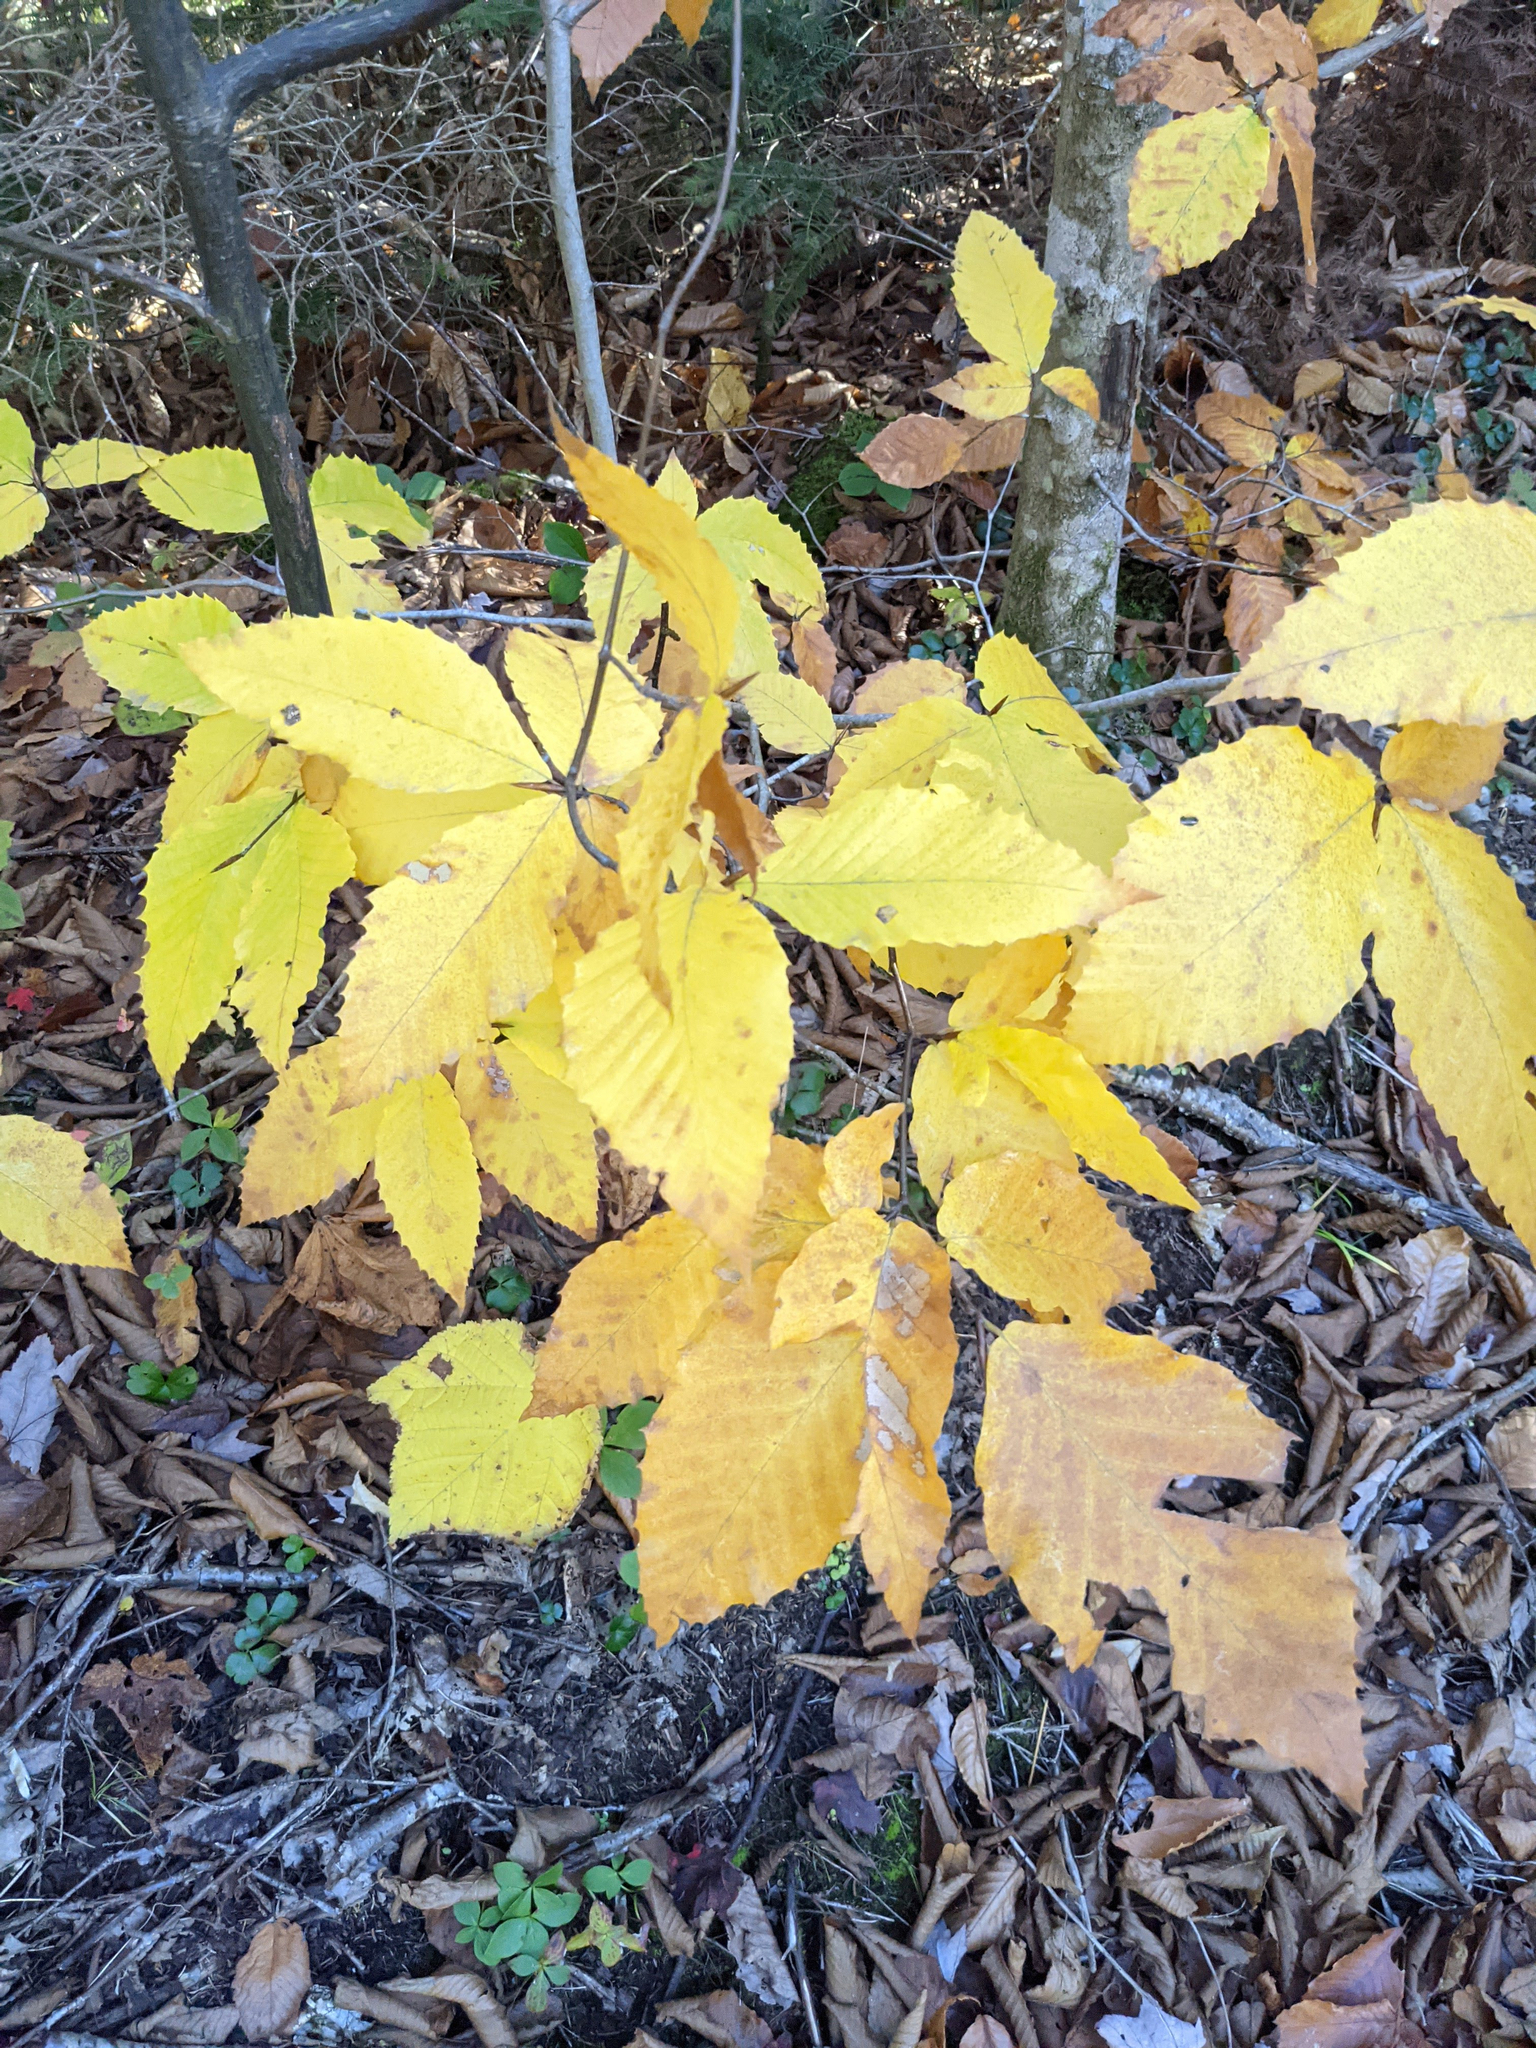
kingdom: Plantae
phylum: Tracheophyta
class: Magnoliopsida
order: Fagales
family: Fagaceae
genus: Fagus
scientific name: Fagus grandifolia
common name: American beech
